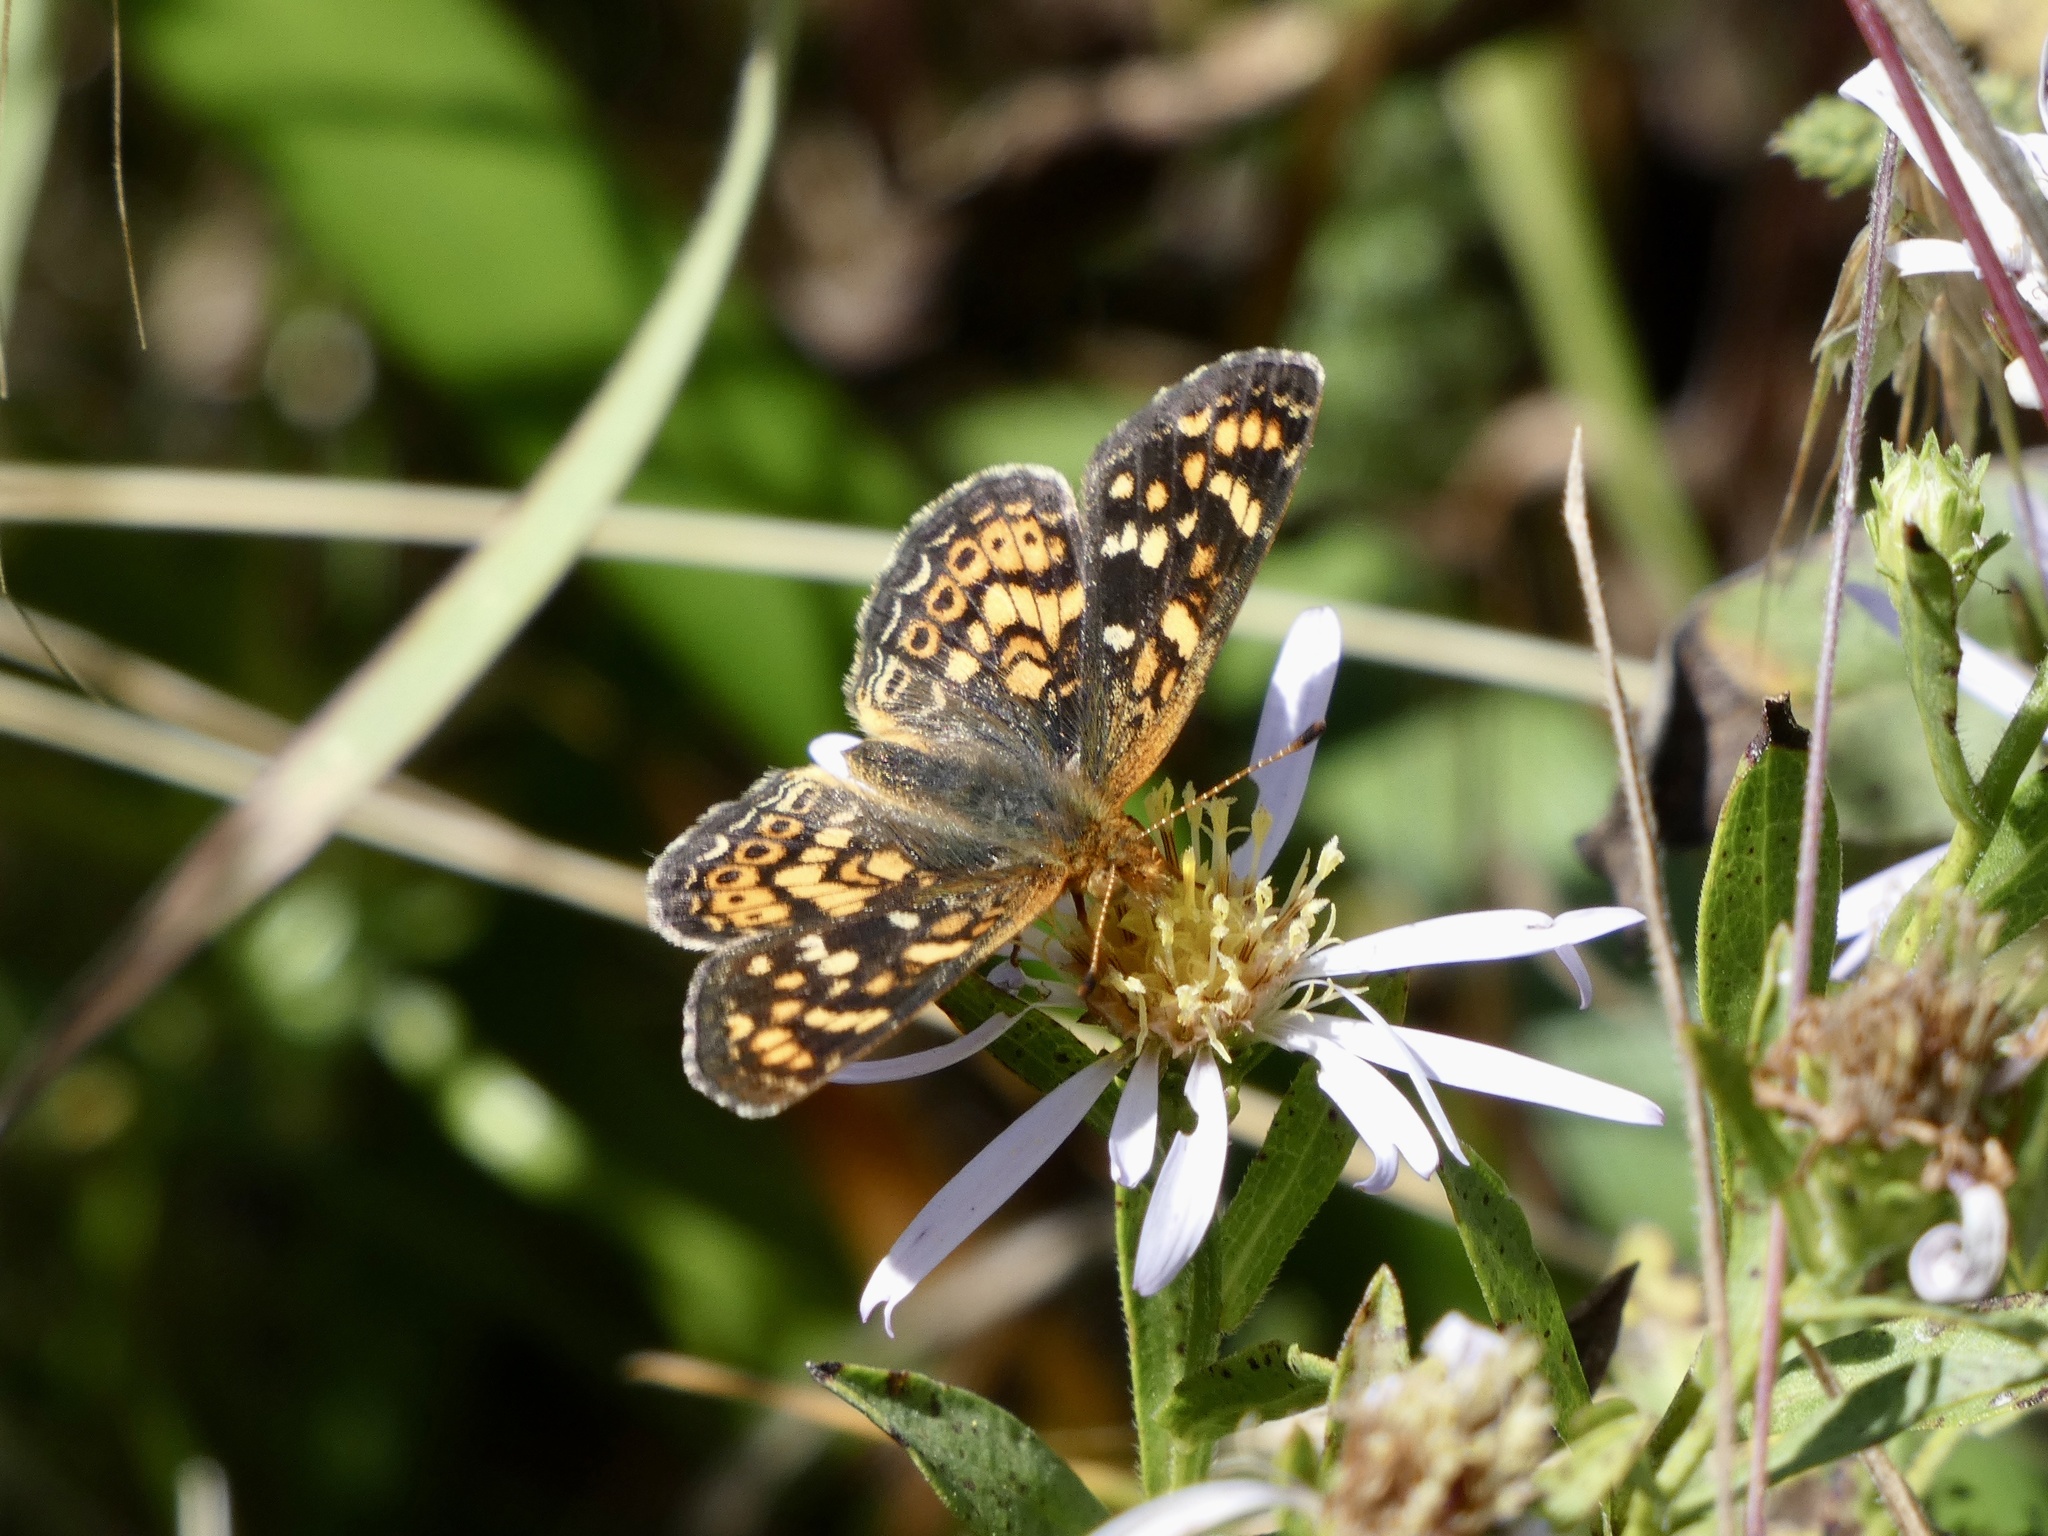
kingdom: Animalia
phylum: Arthropoda
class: Insecta
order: Lepidoptera
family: Nymphalidae
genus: Phyciodes
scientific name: Phyciodes tharos
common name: Pearl crescent
